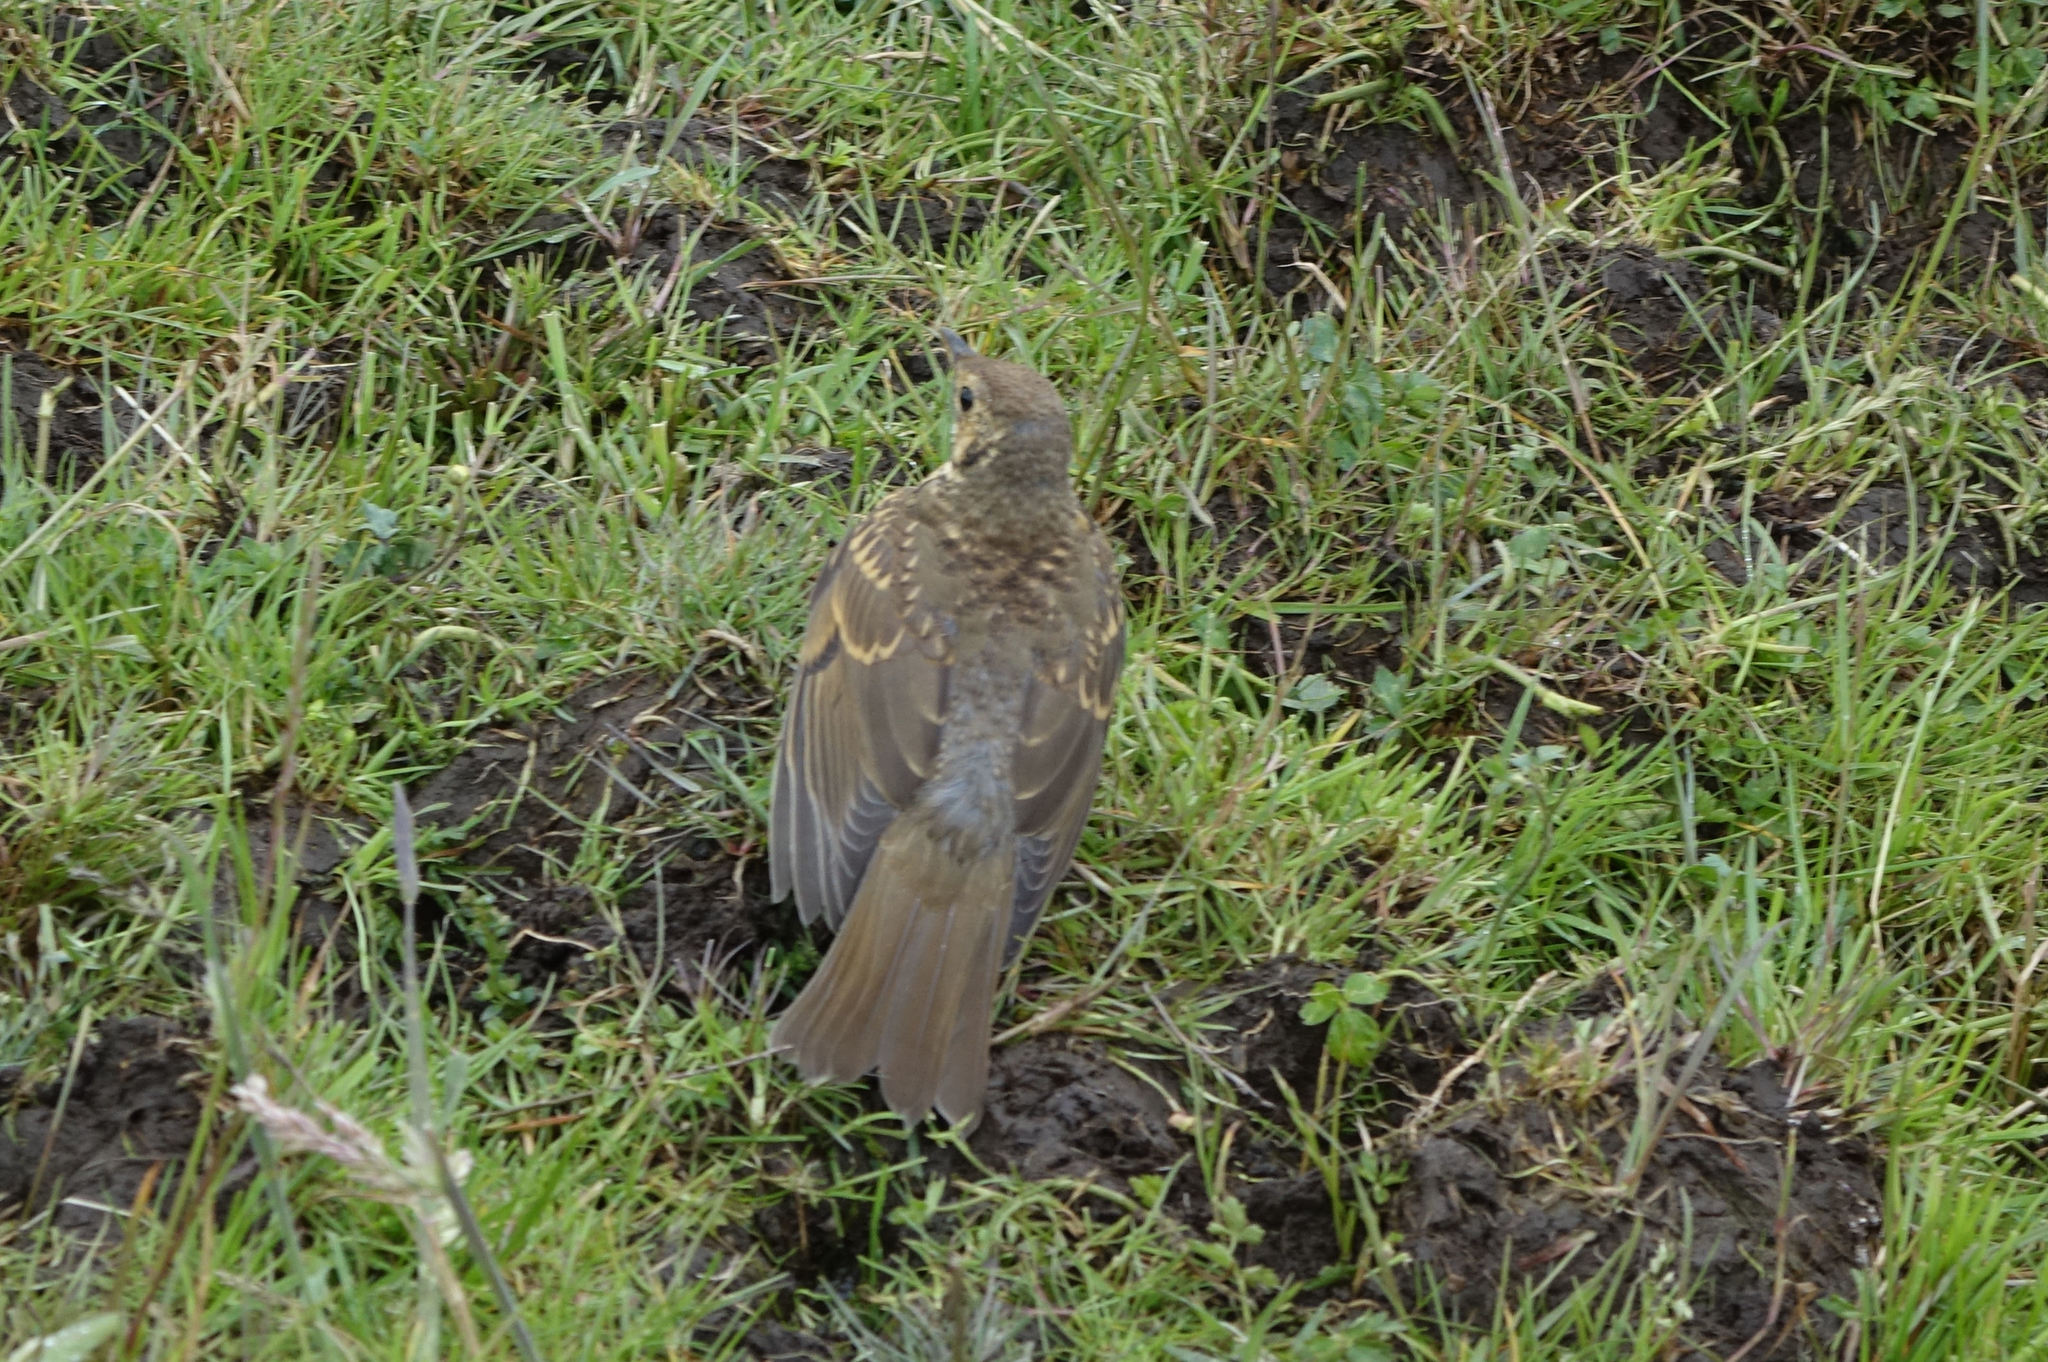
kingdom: Animalia
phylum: Chordata
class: Aves
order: Passeriformes
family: Turdidae
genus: Turdus
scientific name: Turdus philomelos
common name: Song thrush
